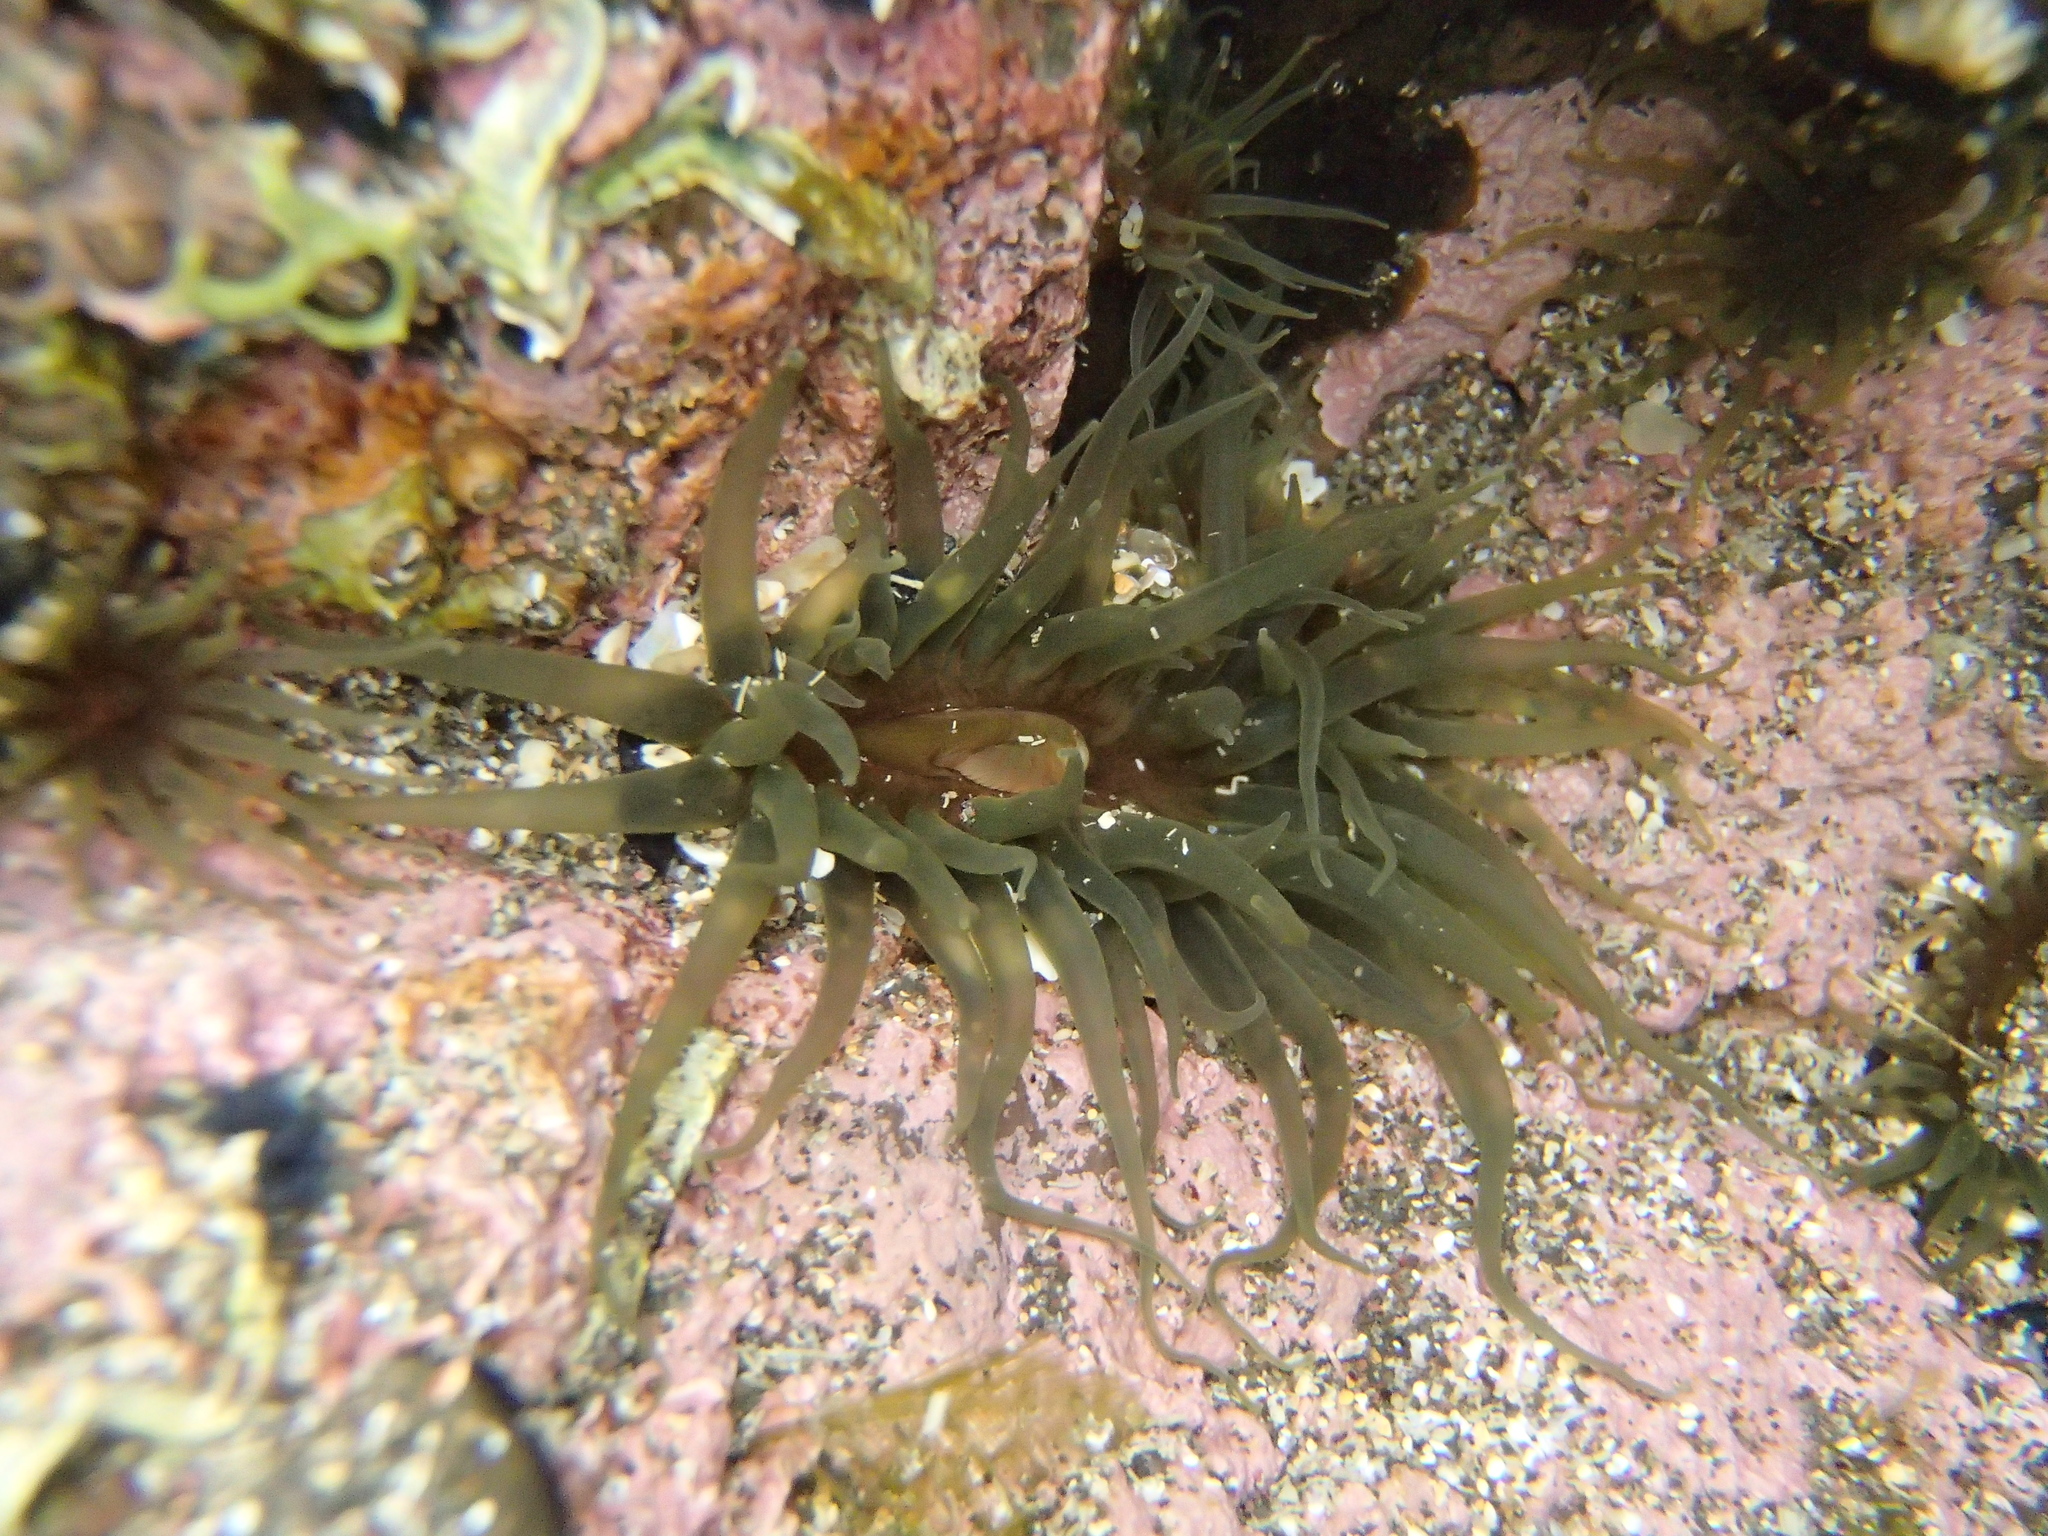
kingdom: Animalia
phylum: Cnidaria
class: Anthozoa
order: Actiniaria
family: Actiniidae
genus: Isactinia
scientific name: Isactinia olivacea
